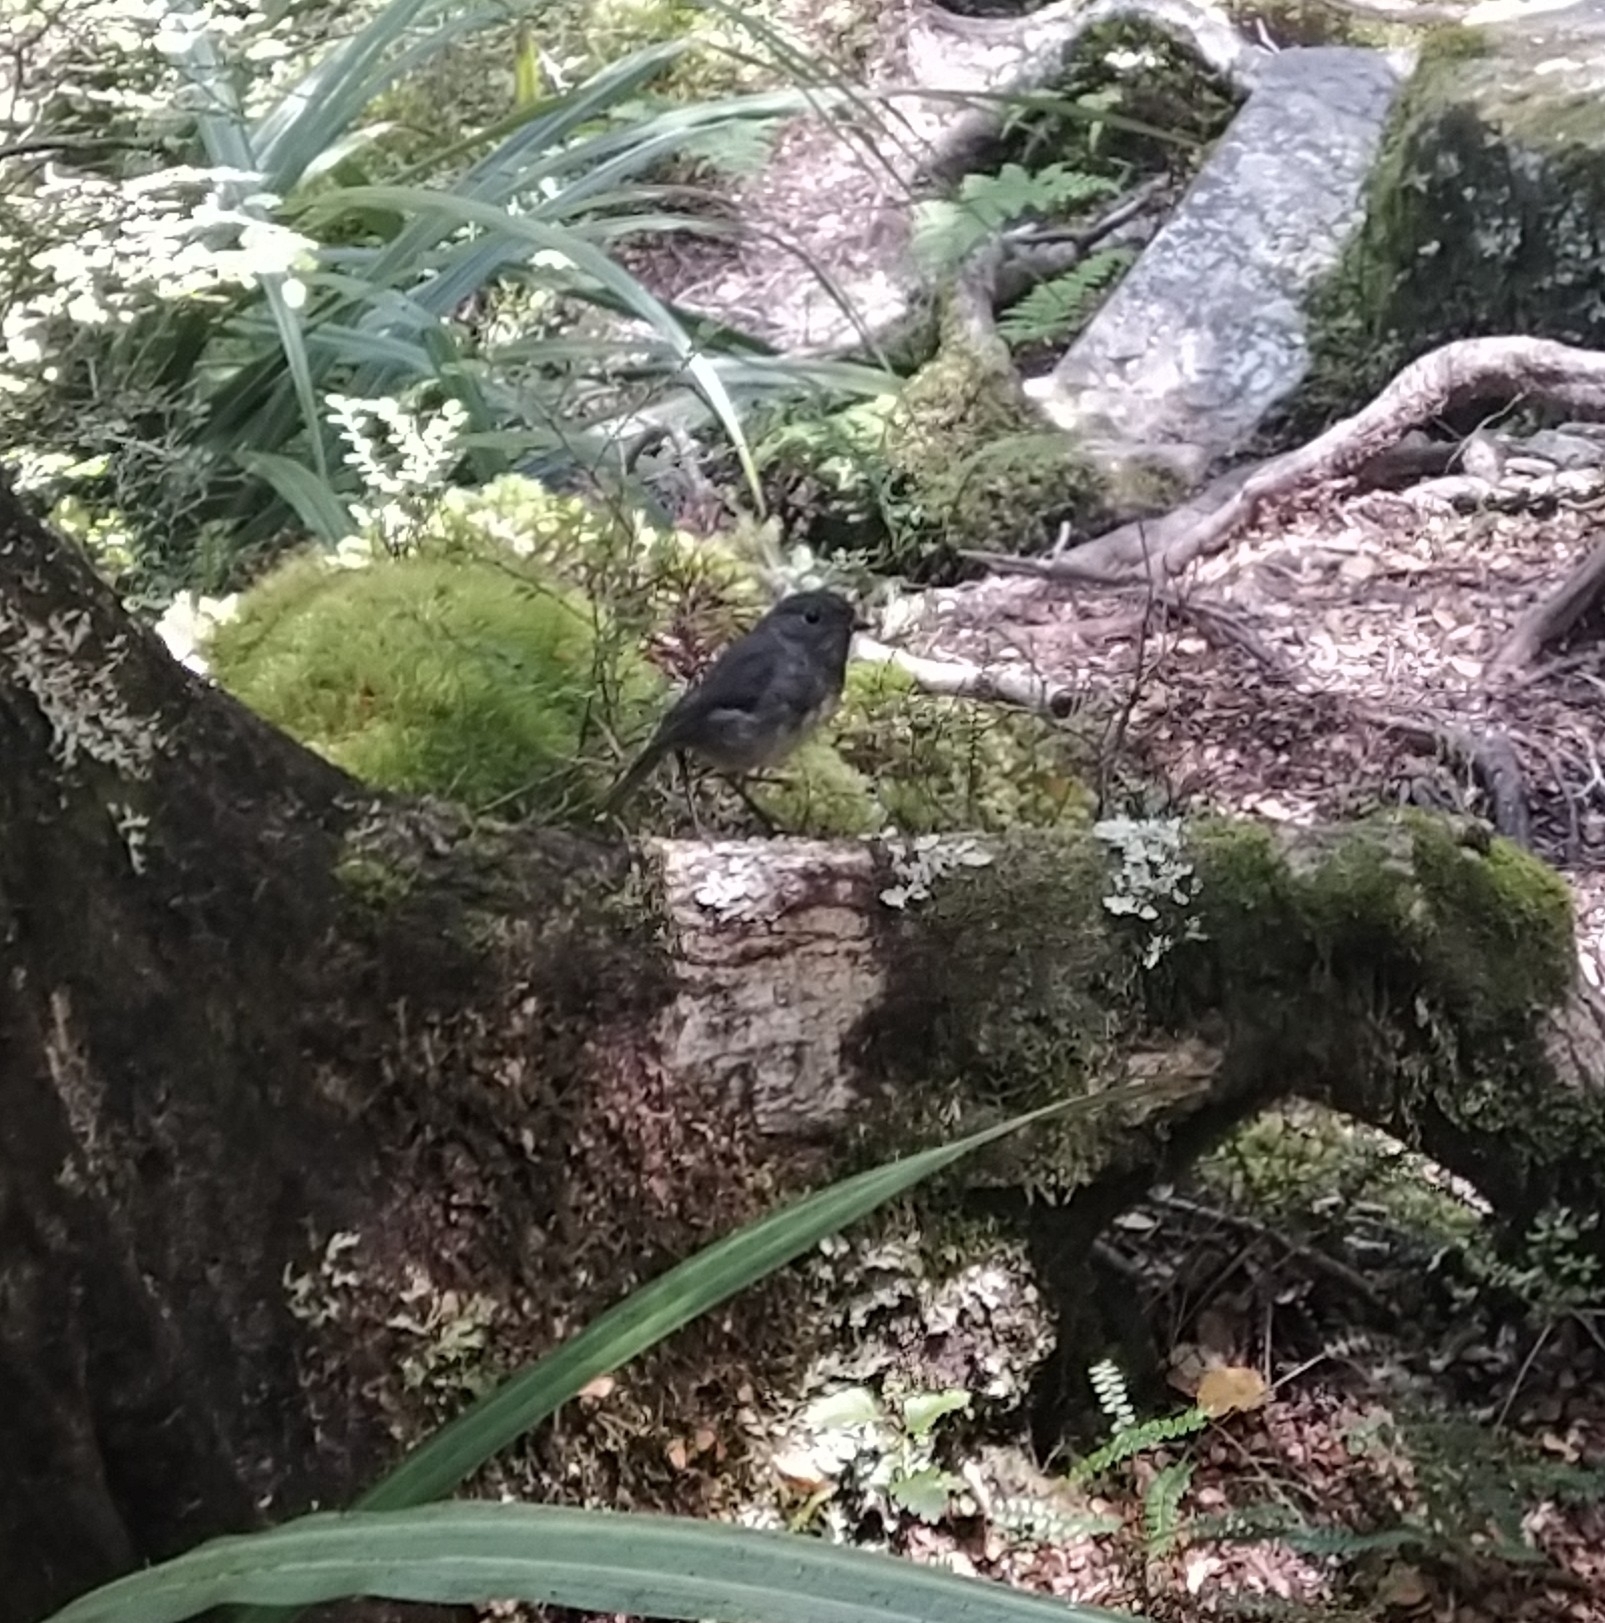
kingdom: Animalia
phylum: Chordata
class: Aves
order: Passeriformes
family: Petroicidae
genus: Petroica
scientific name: Petroica australis
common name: New zealand robin
